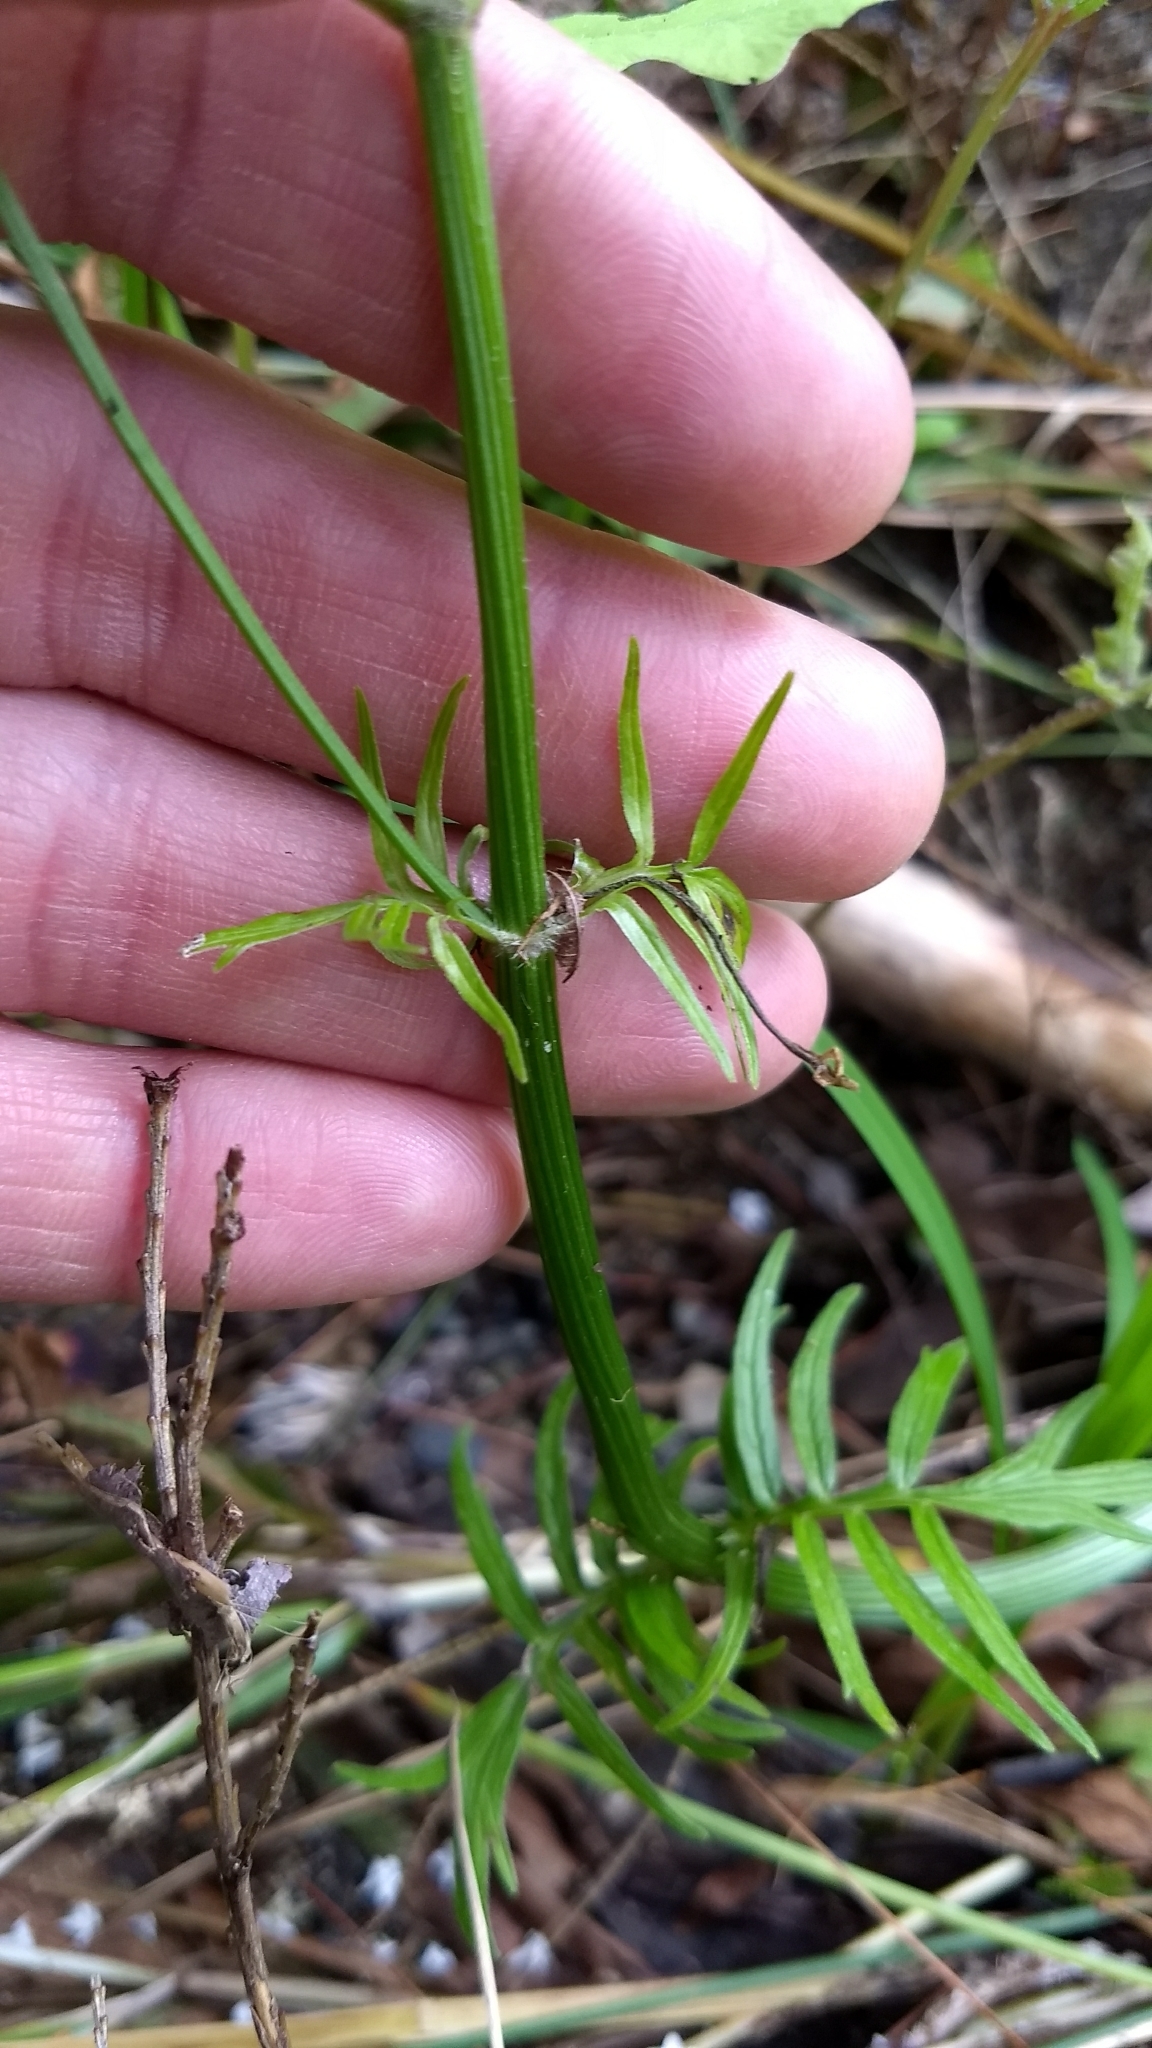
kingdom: Plantae
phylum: Tracheophyta
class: Magnoliopsida
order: Dipsacales
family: Caprifoliaceae
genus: Valeriana
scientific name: Valeriana officinalis
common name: Common valerian
